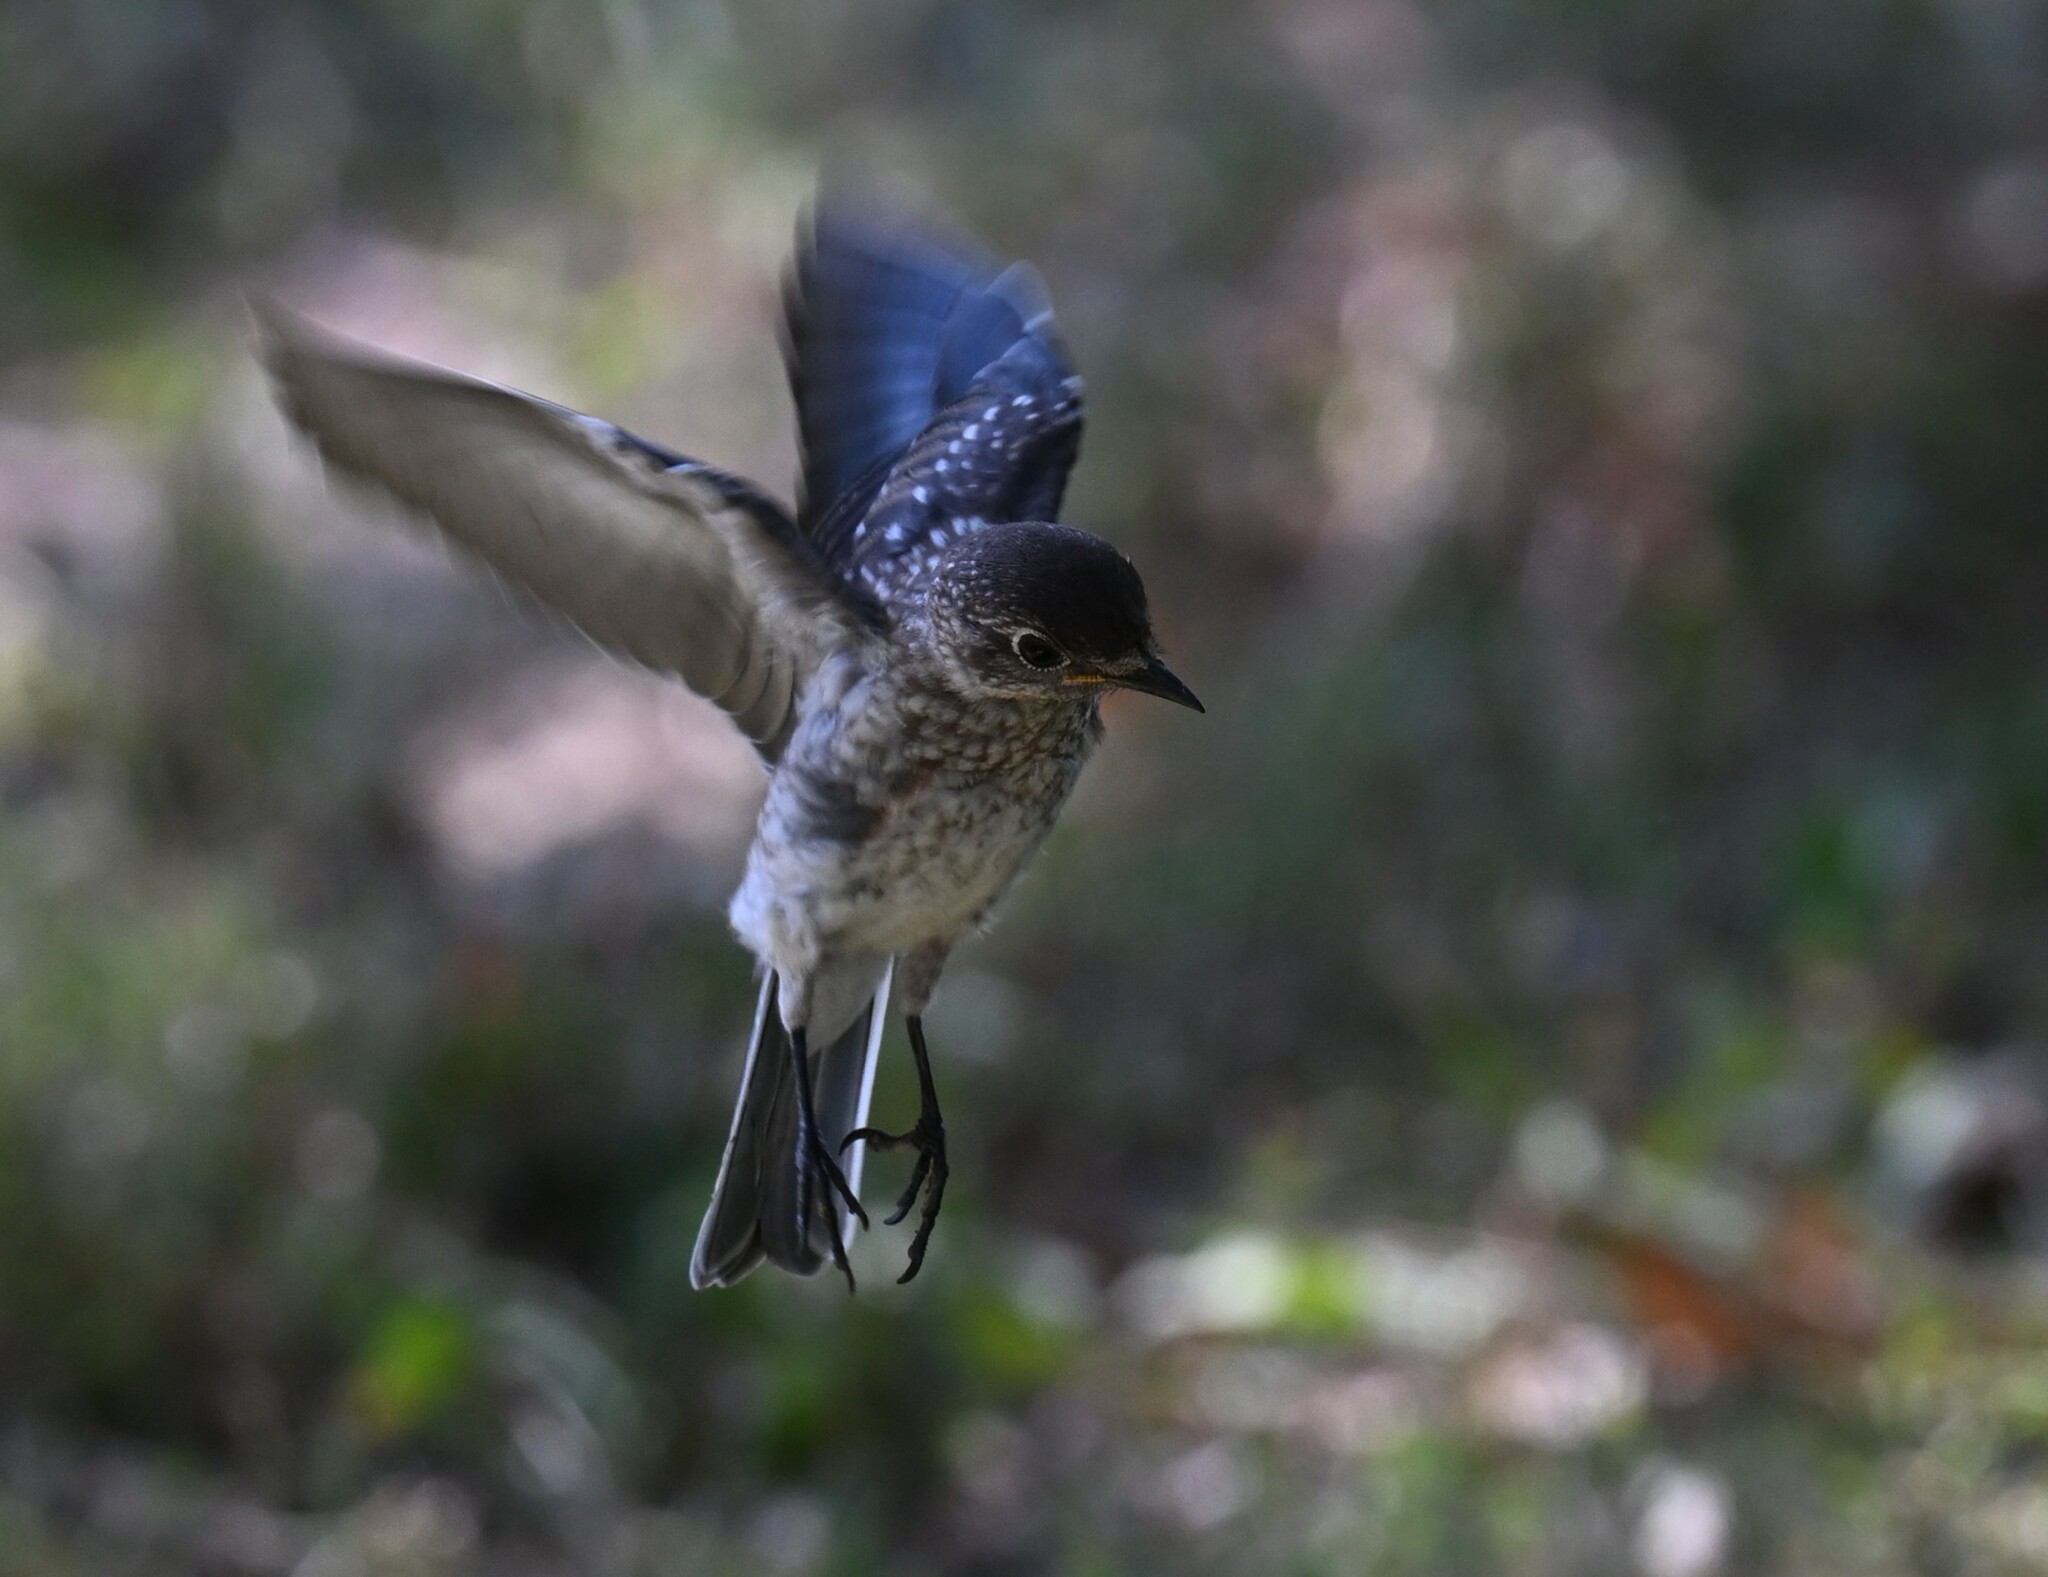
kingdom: Animalia
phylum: Chordata
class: Aves
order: Passeriformes
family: Turdidae
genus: Sialia
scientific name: Sialia sialis
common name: Eastern bluebird
